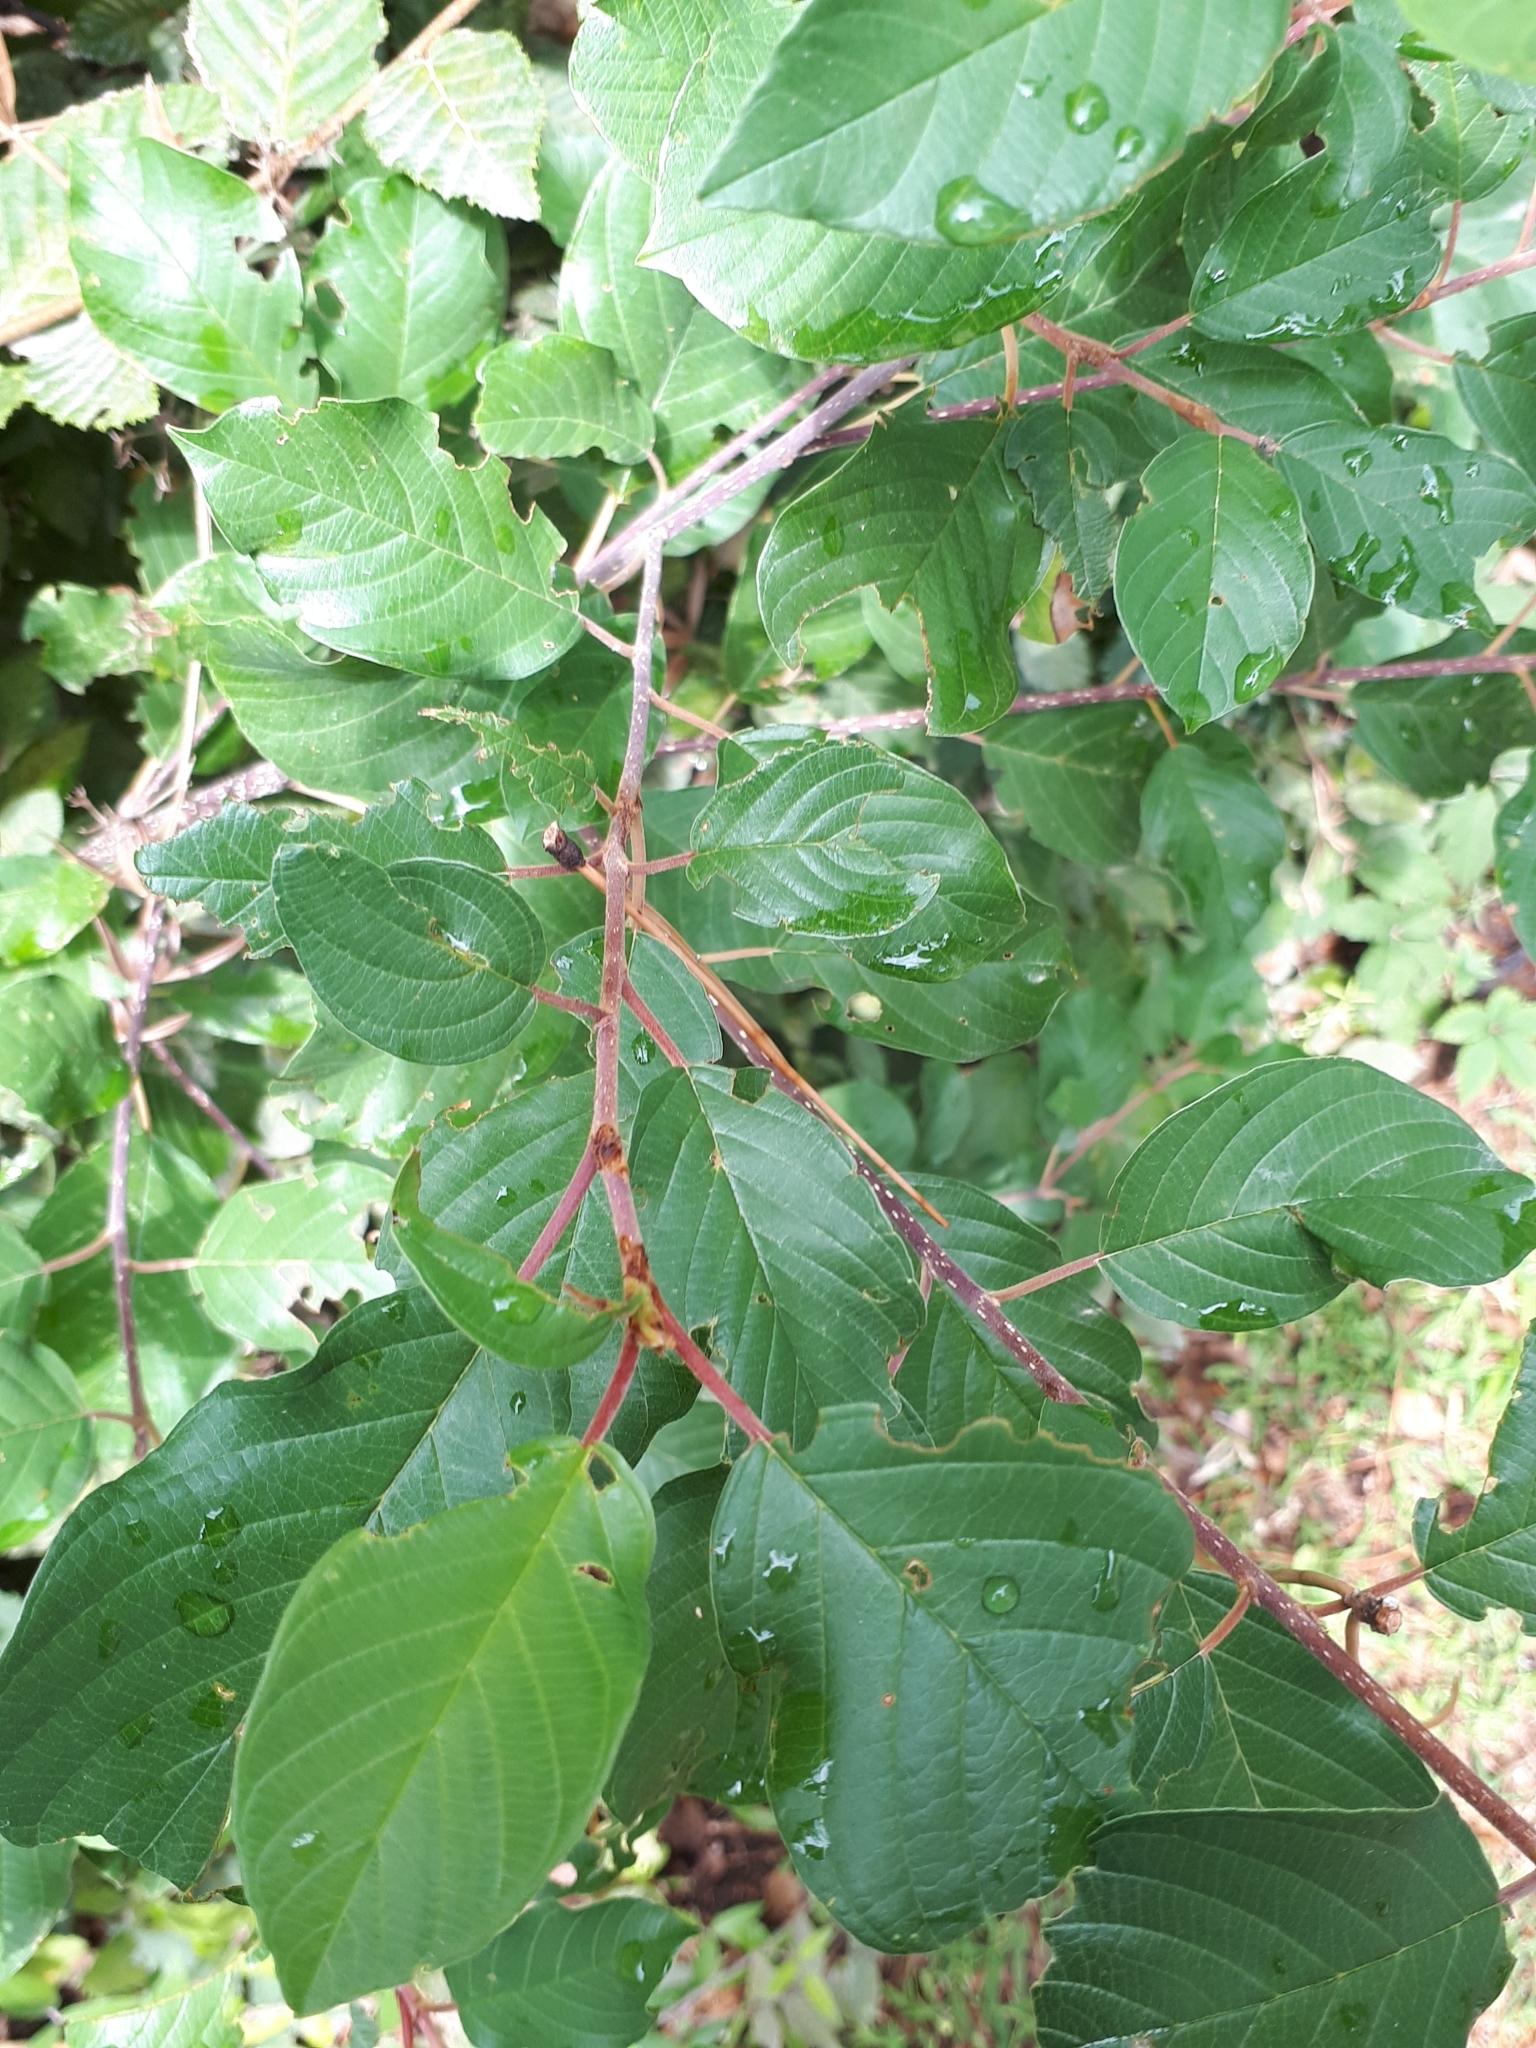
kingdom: Plantae
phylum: Tracheophyta
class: Magnoliopsida
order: Rosales
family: Rhamnaceae
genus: Frangula
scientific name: Frangula alnus
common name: Alder buckthorn
